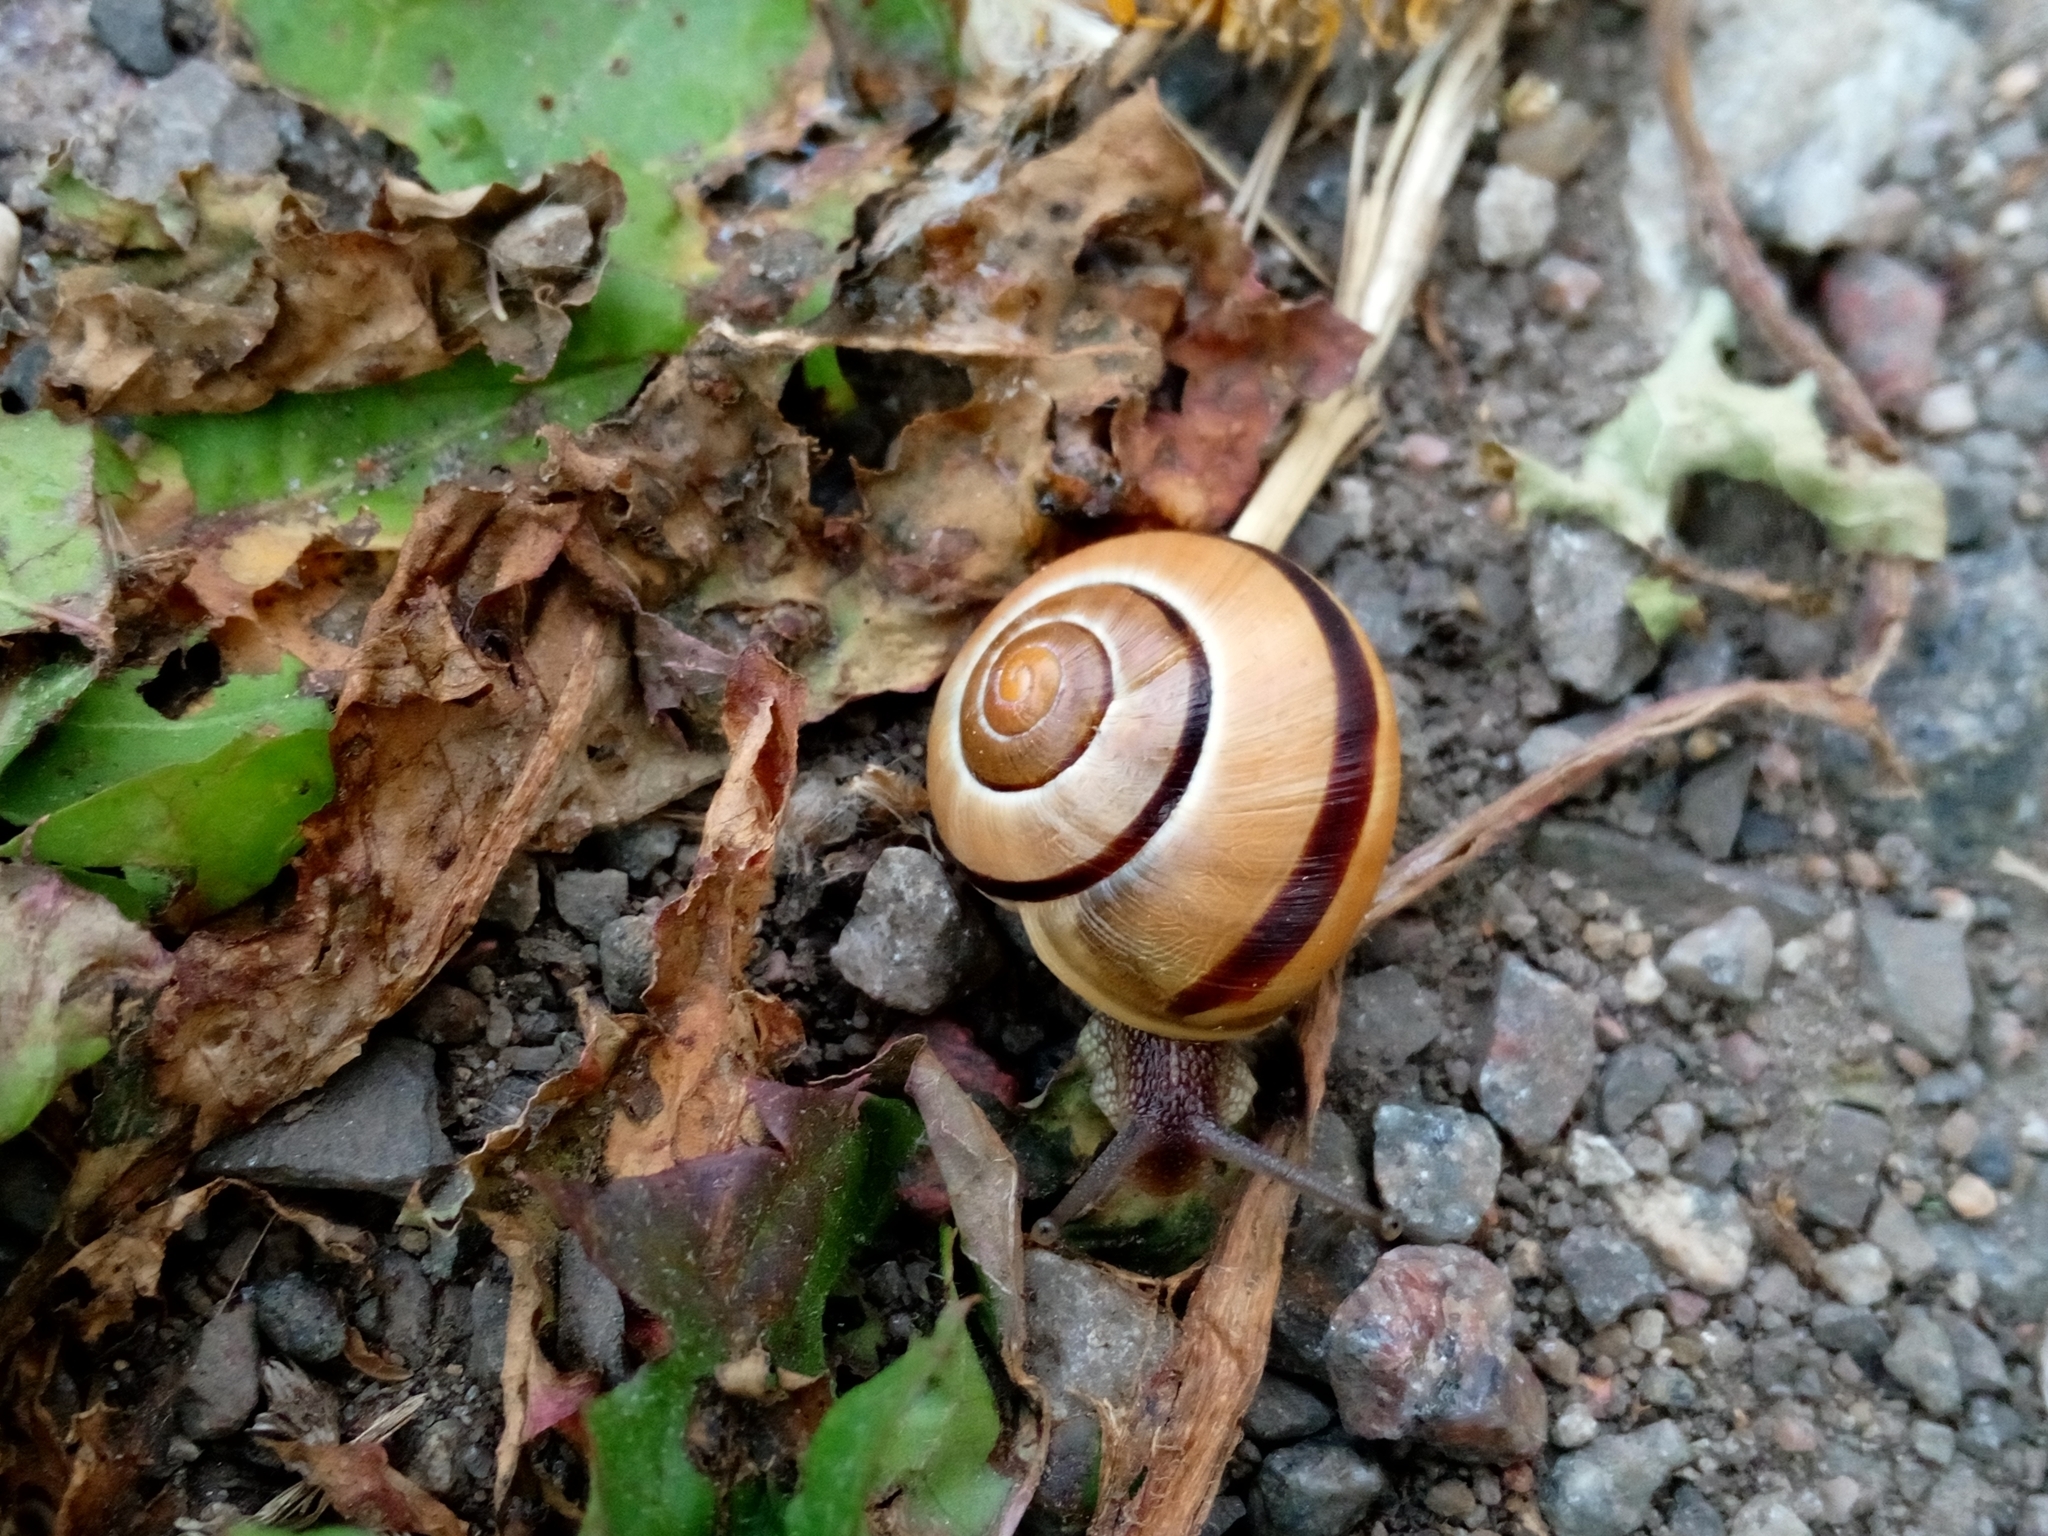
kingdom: Animalia
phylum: Mollusca
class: Gastropoda
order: Stylommatophora
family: Helicidae
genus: Cepaea
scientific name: Cepaea nemoralis
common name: Grovesnail
